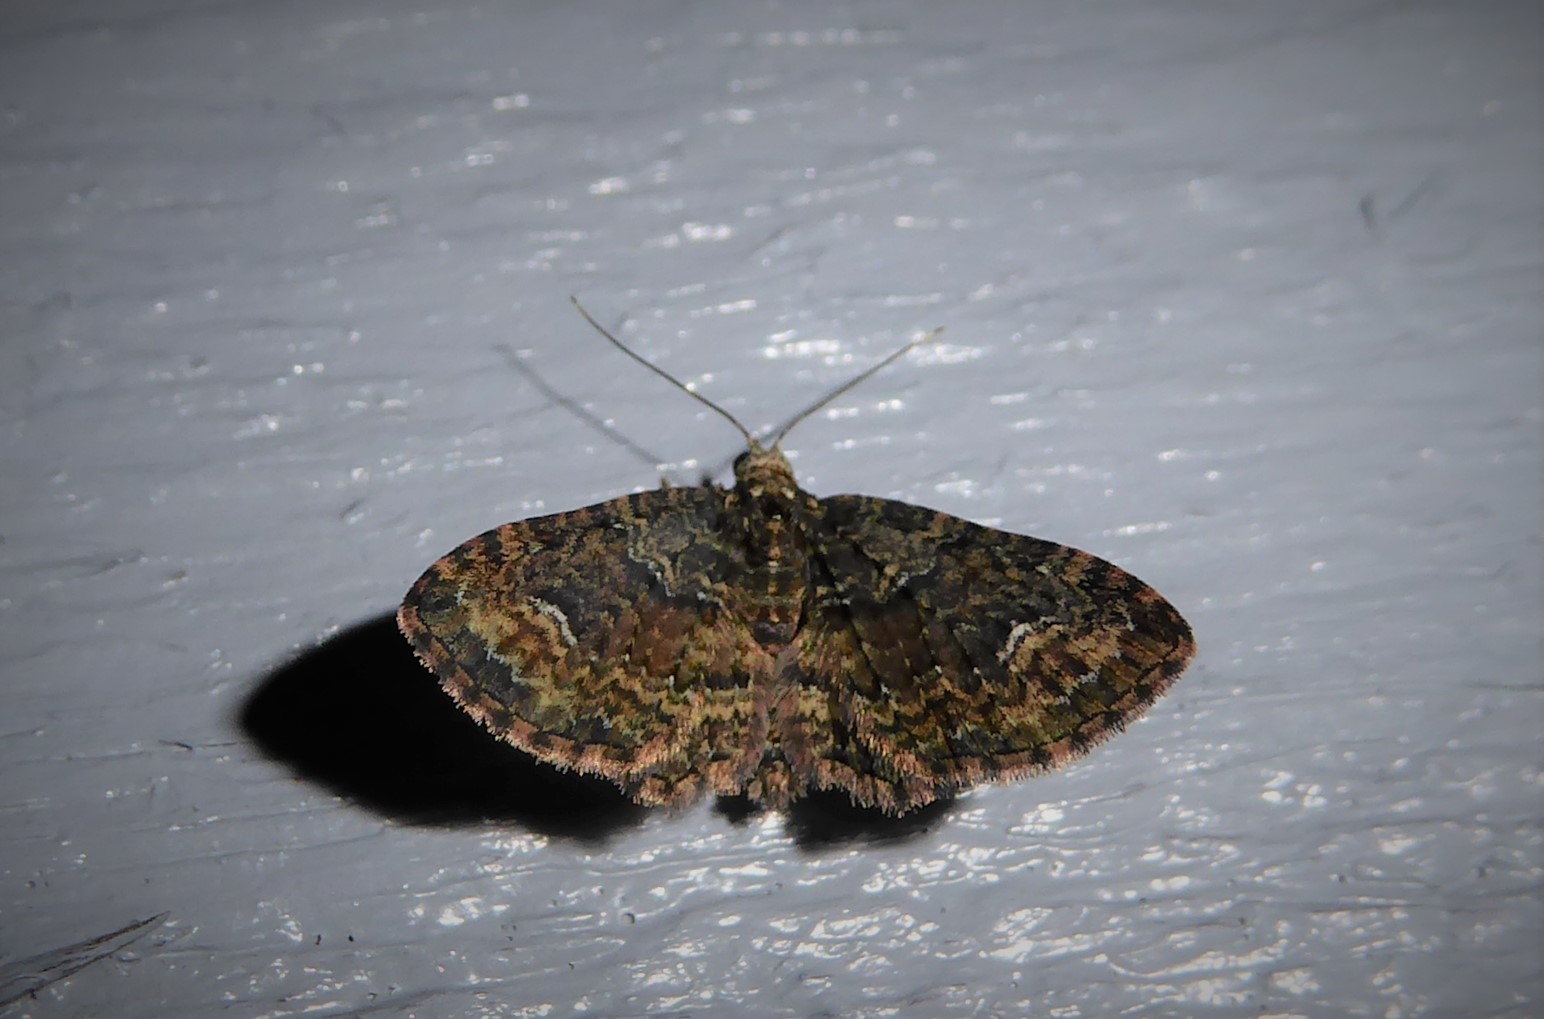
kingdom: Animalia
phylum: Arthropoda
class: Insecta
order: Lepidoptera
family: Geometridae
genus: Idaea
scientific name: Idaea mutanda
